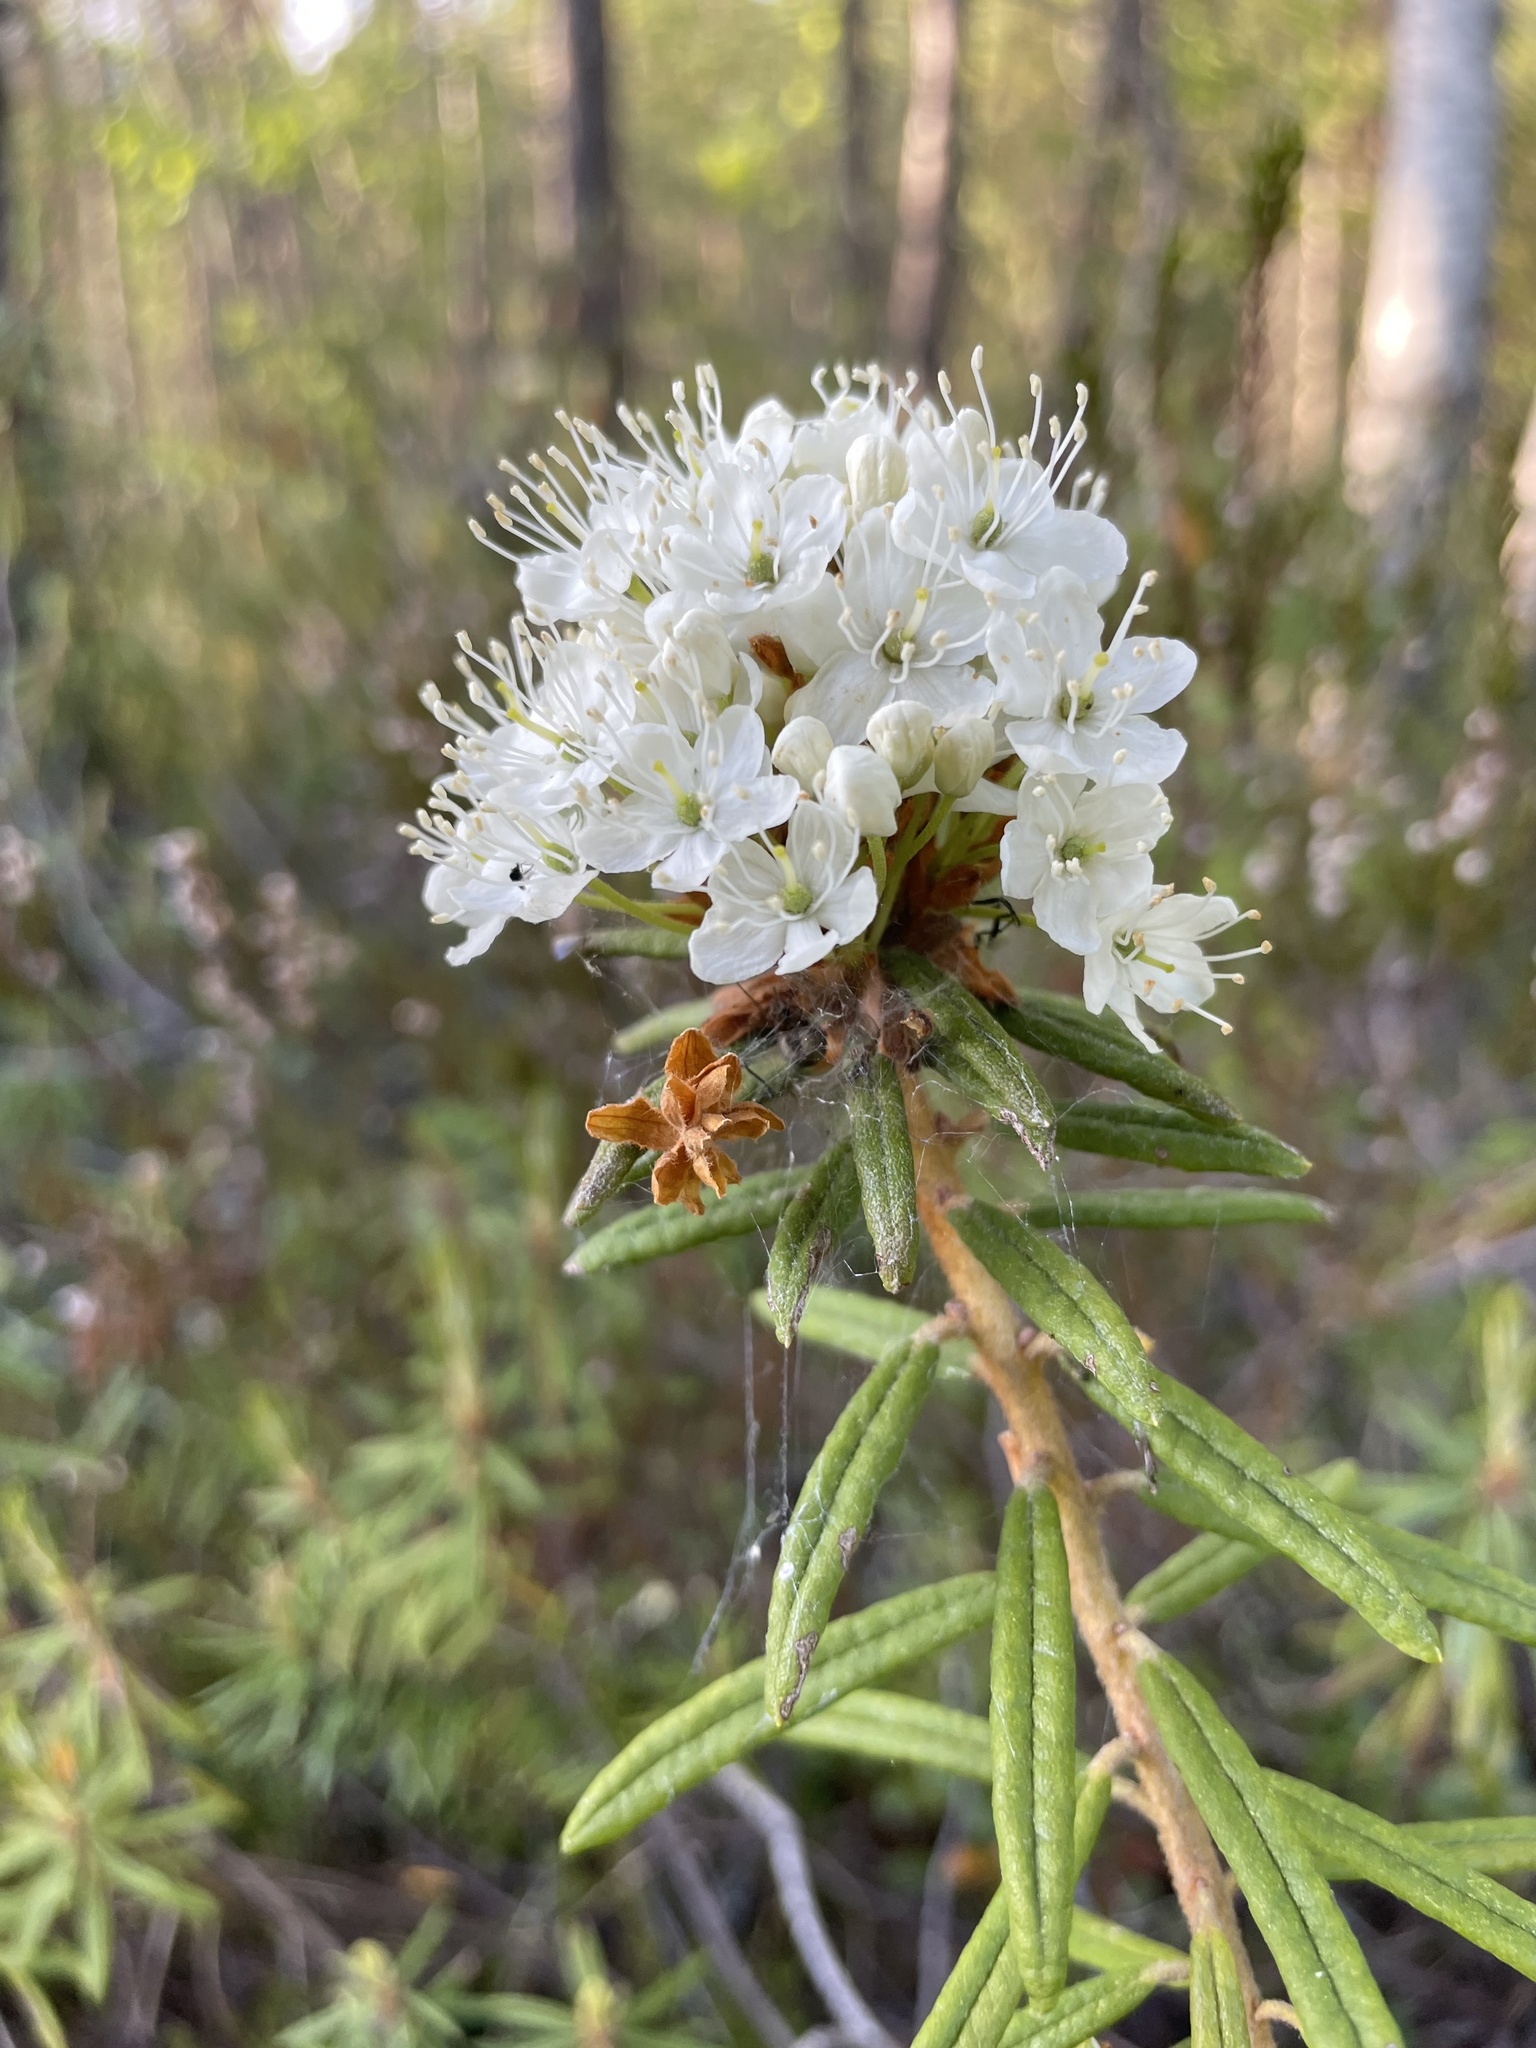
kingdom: Plantae
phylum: Tracheophyta
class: Magnoliopsida
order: Ericales
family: Ericaceae
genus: Rhododendron
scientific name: Rhododendron tomentosum
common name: Marsh labrador tea
